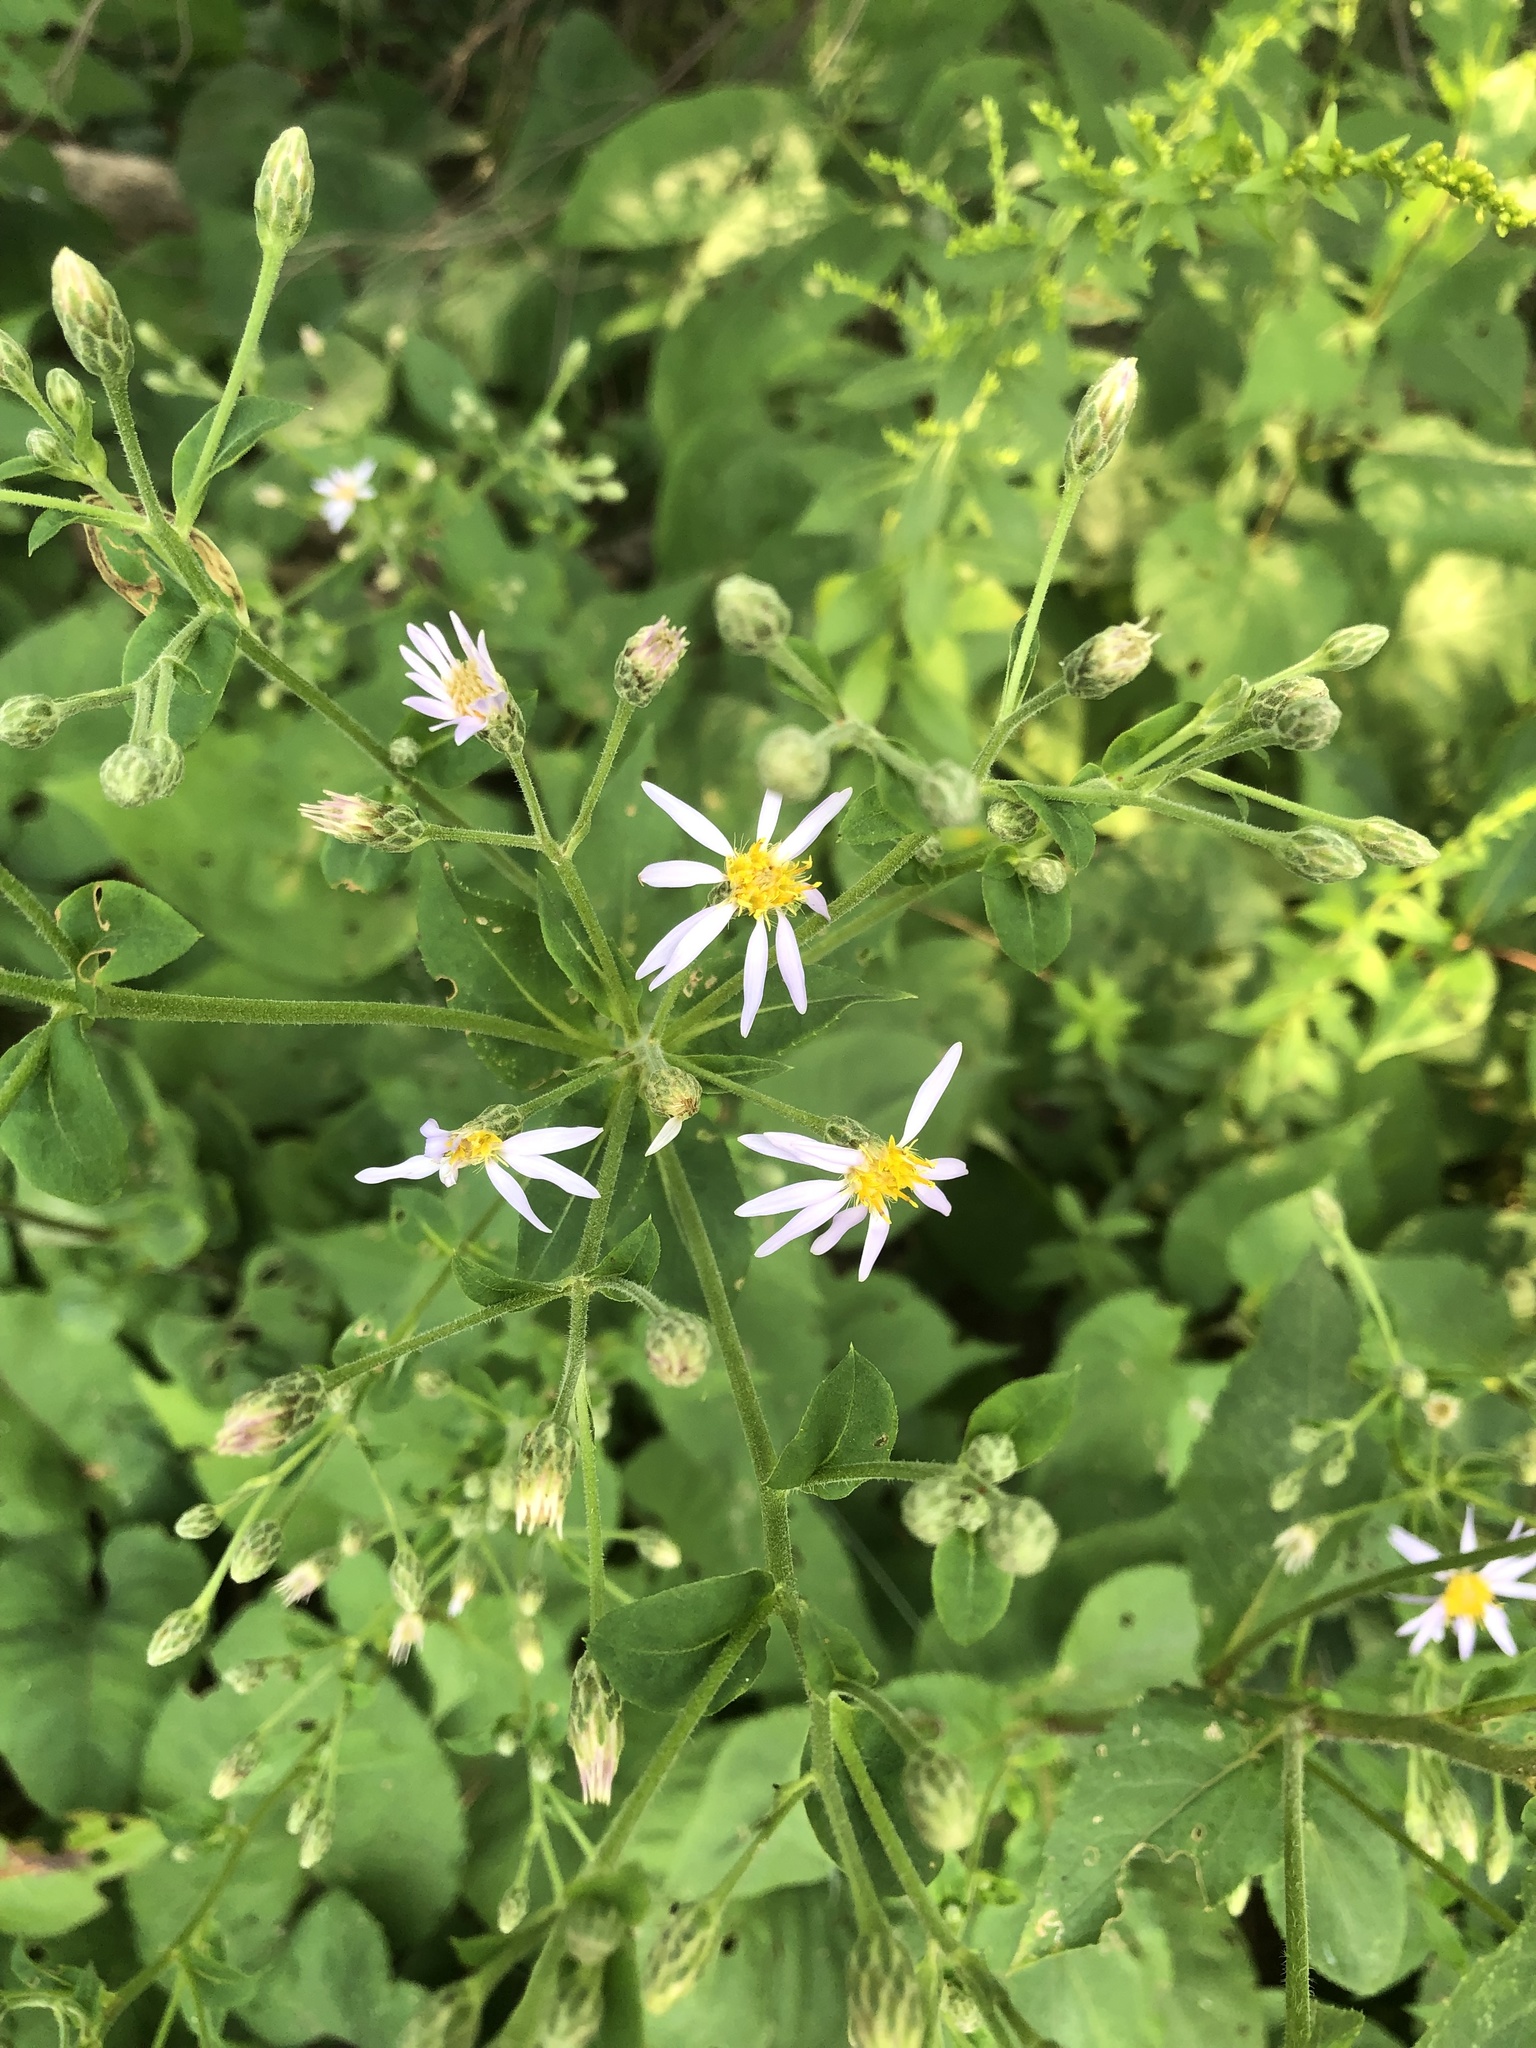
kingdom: Plantae
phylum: Tracheophyta
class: Magnoliopsida
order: Asterales
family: Asteraceae
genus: Eurybia
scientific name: Eurybia macrophylla
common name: Big-leaved aster
